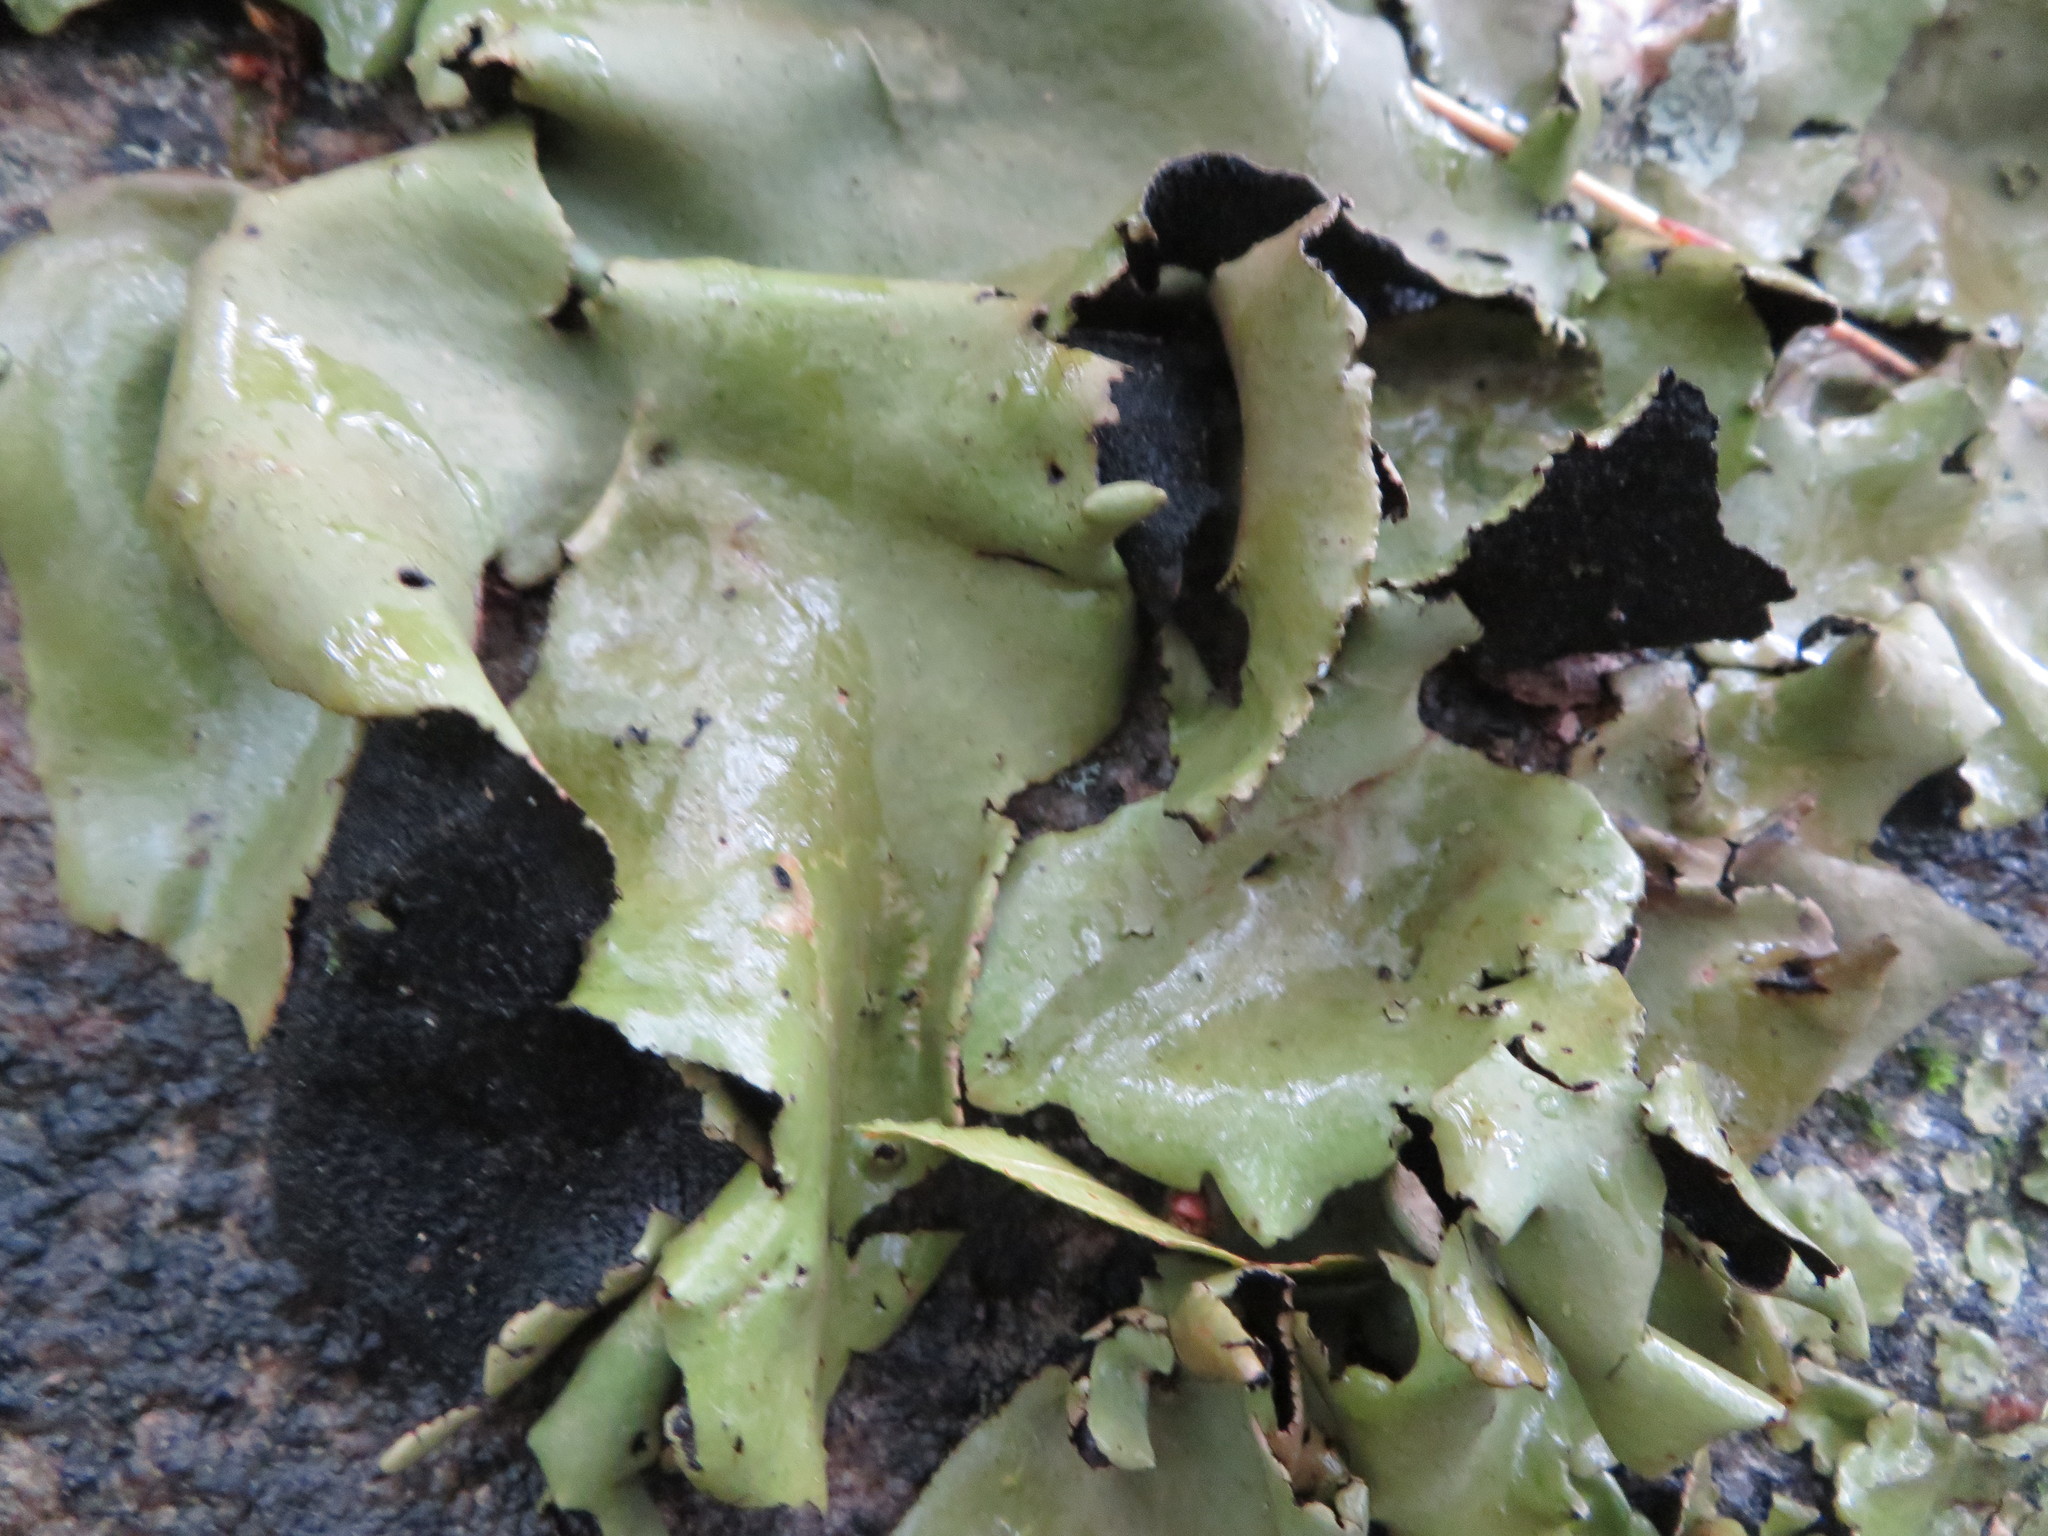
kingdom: Fungi
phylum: Ascomycota
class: Lecanoromycetes
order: Umbilicariales
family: Umbilicariaceae
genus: Umbilicaria
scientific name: Umbilicaria mammulata
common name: Smooth rock tripe
